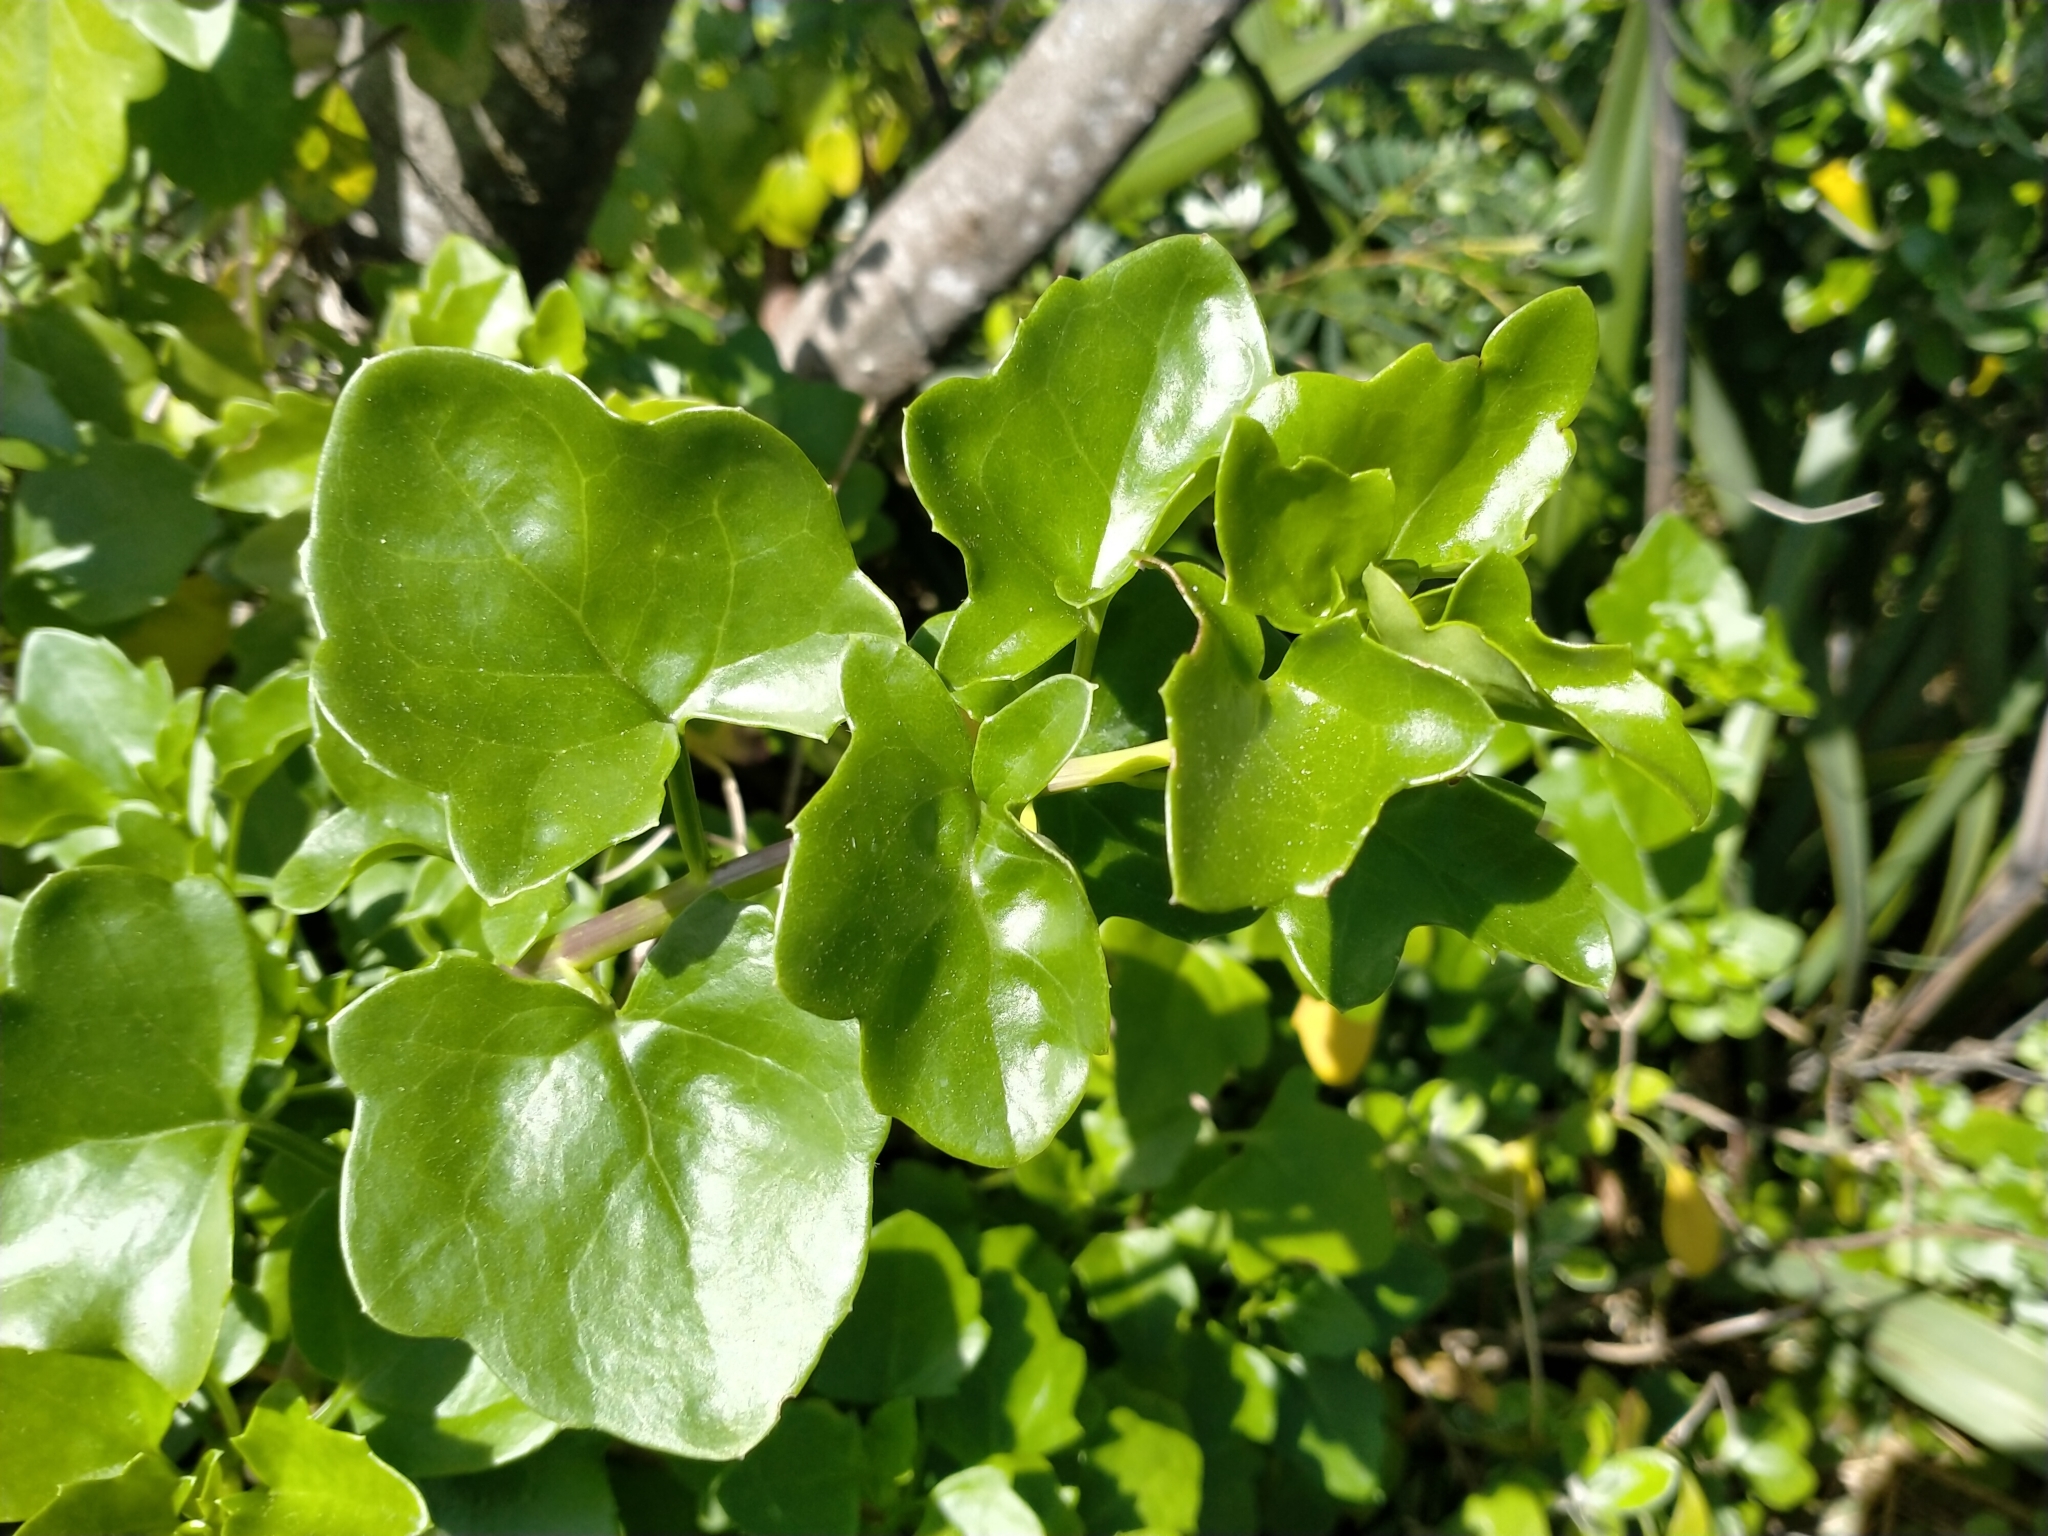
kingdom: Plantae
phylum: Tracheophyta
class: Magnoliopsida
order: Asterales
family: Asteraceae
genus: Senecio
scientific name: Senecio angulatus
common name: Climbing groundsel
